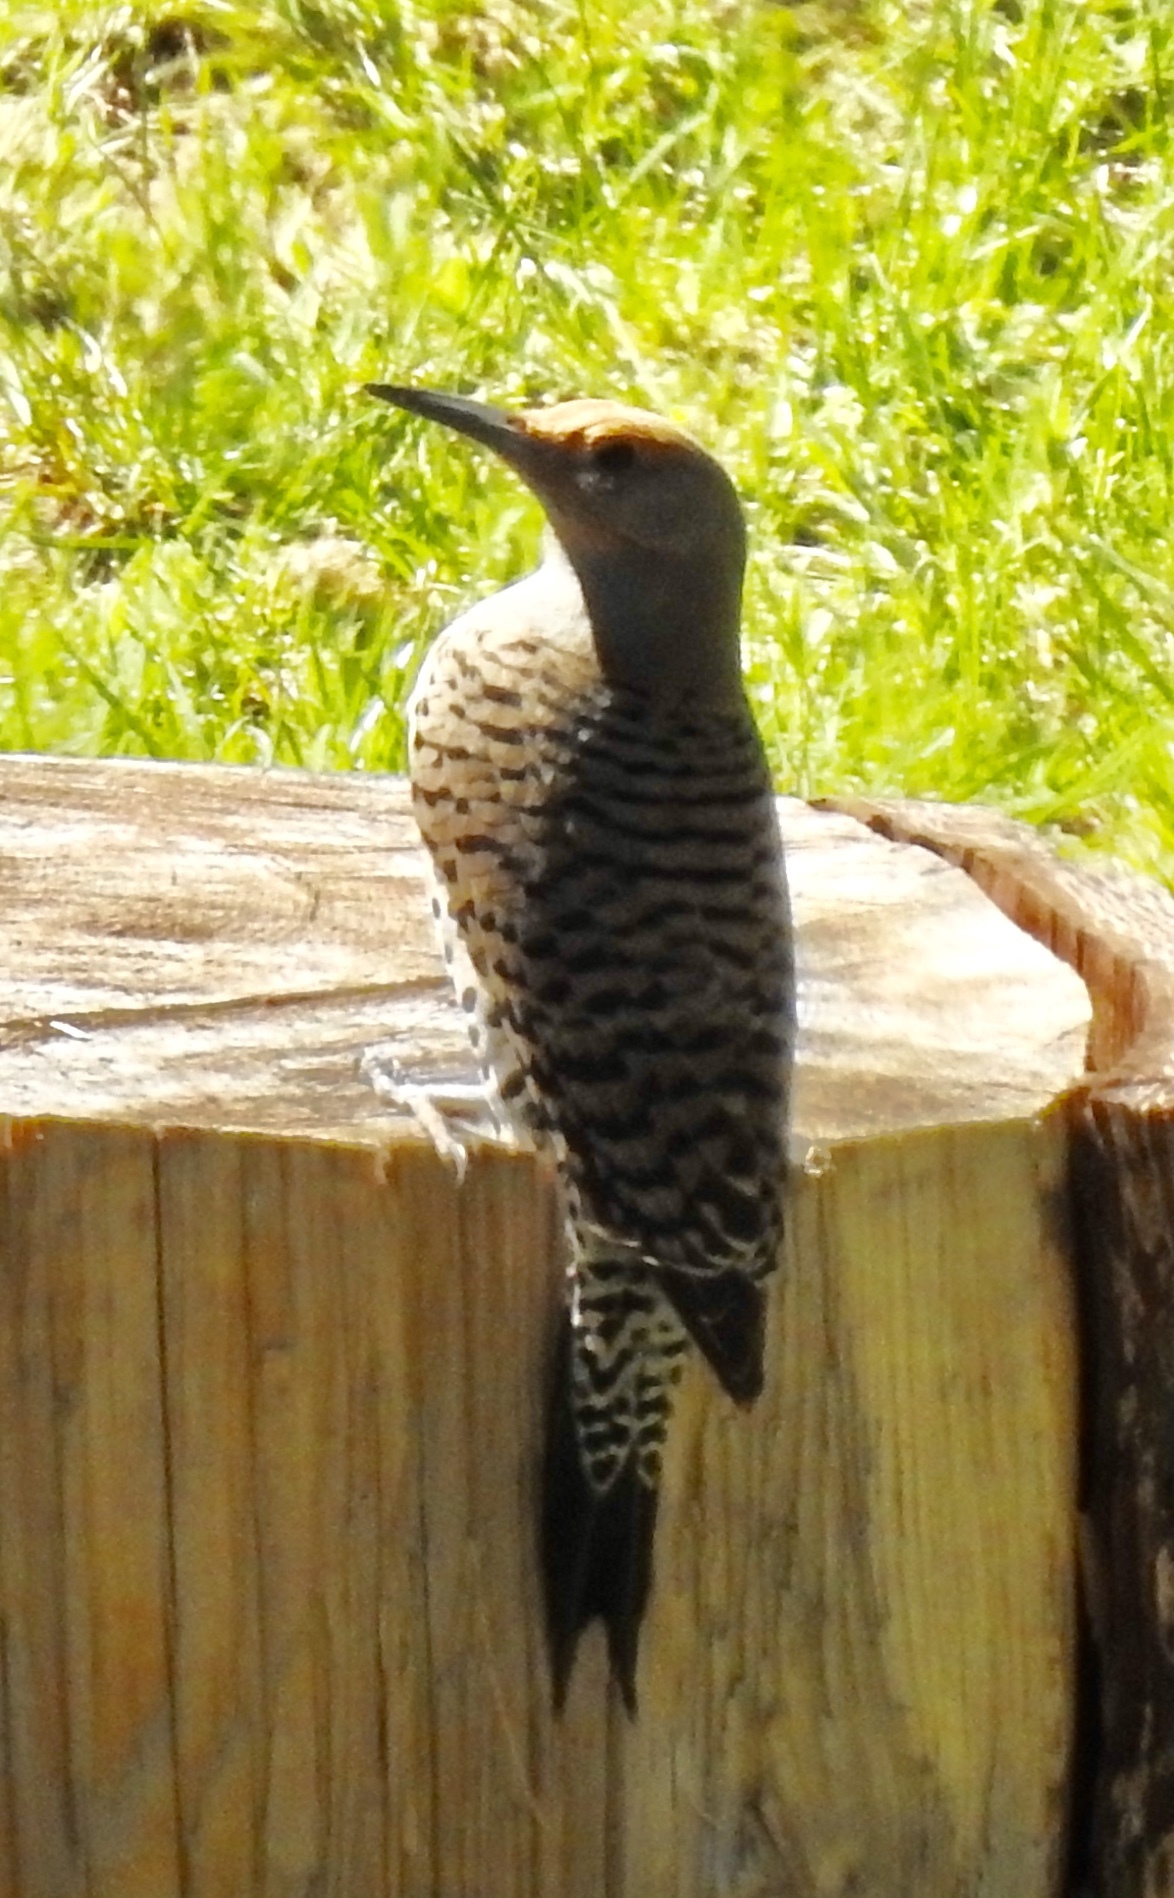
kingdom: Animalia
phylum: Chordata
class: Aves
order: Piciformes
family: Picidae
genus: Colaptes
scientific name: Colaptes auratus
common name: Northern flicker
